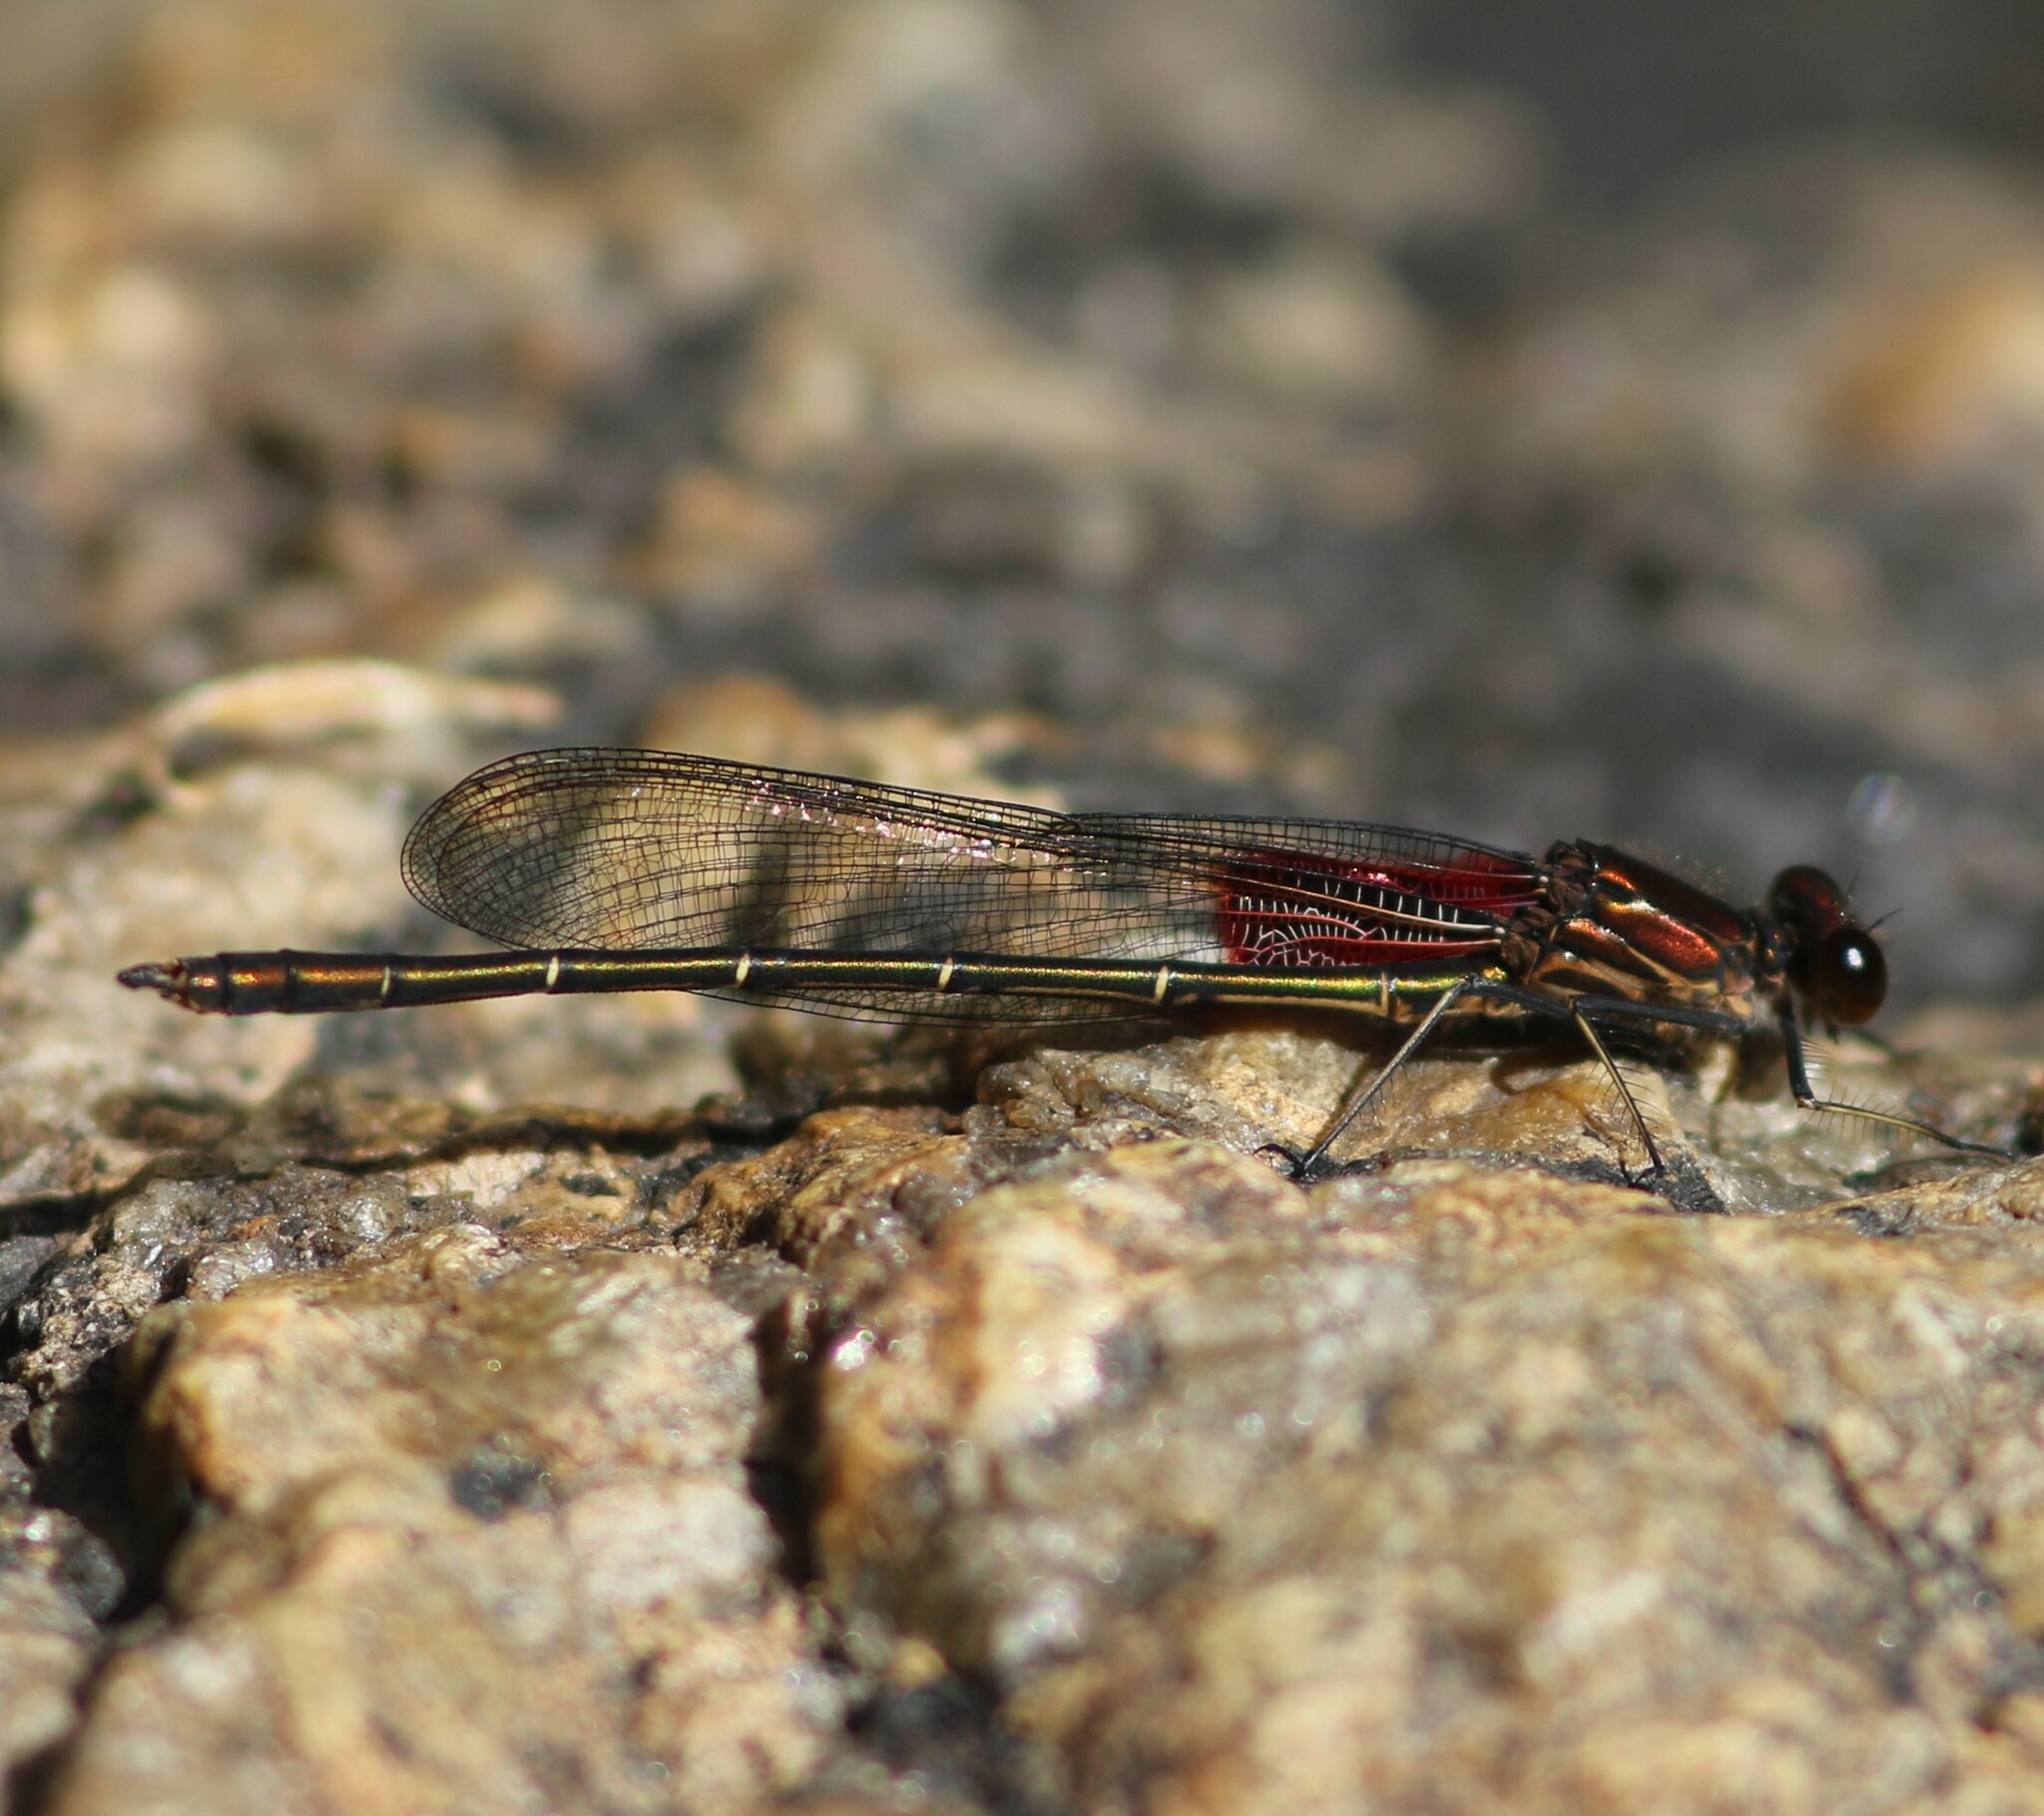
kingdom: Animalia
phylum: Arthropoda
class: Insecta
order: Odonata
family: Calopterygidae
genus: Hetaerina
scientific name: Hetaerina americana
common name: American rubyspot
